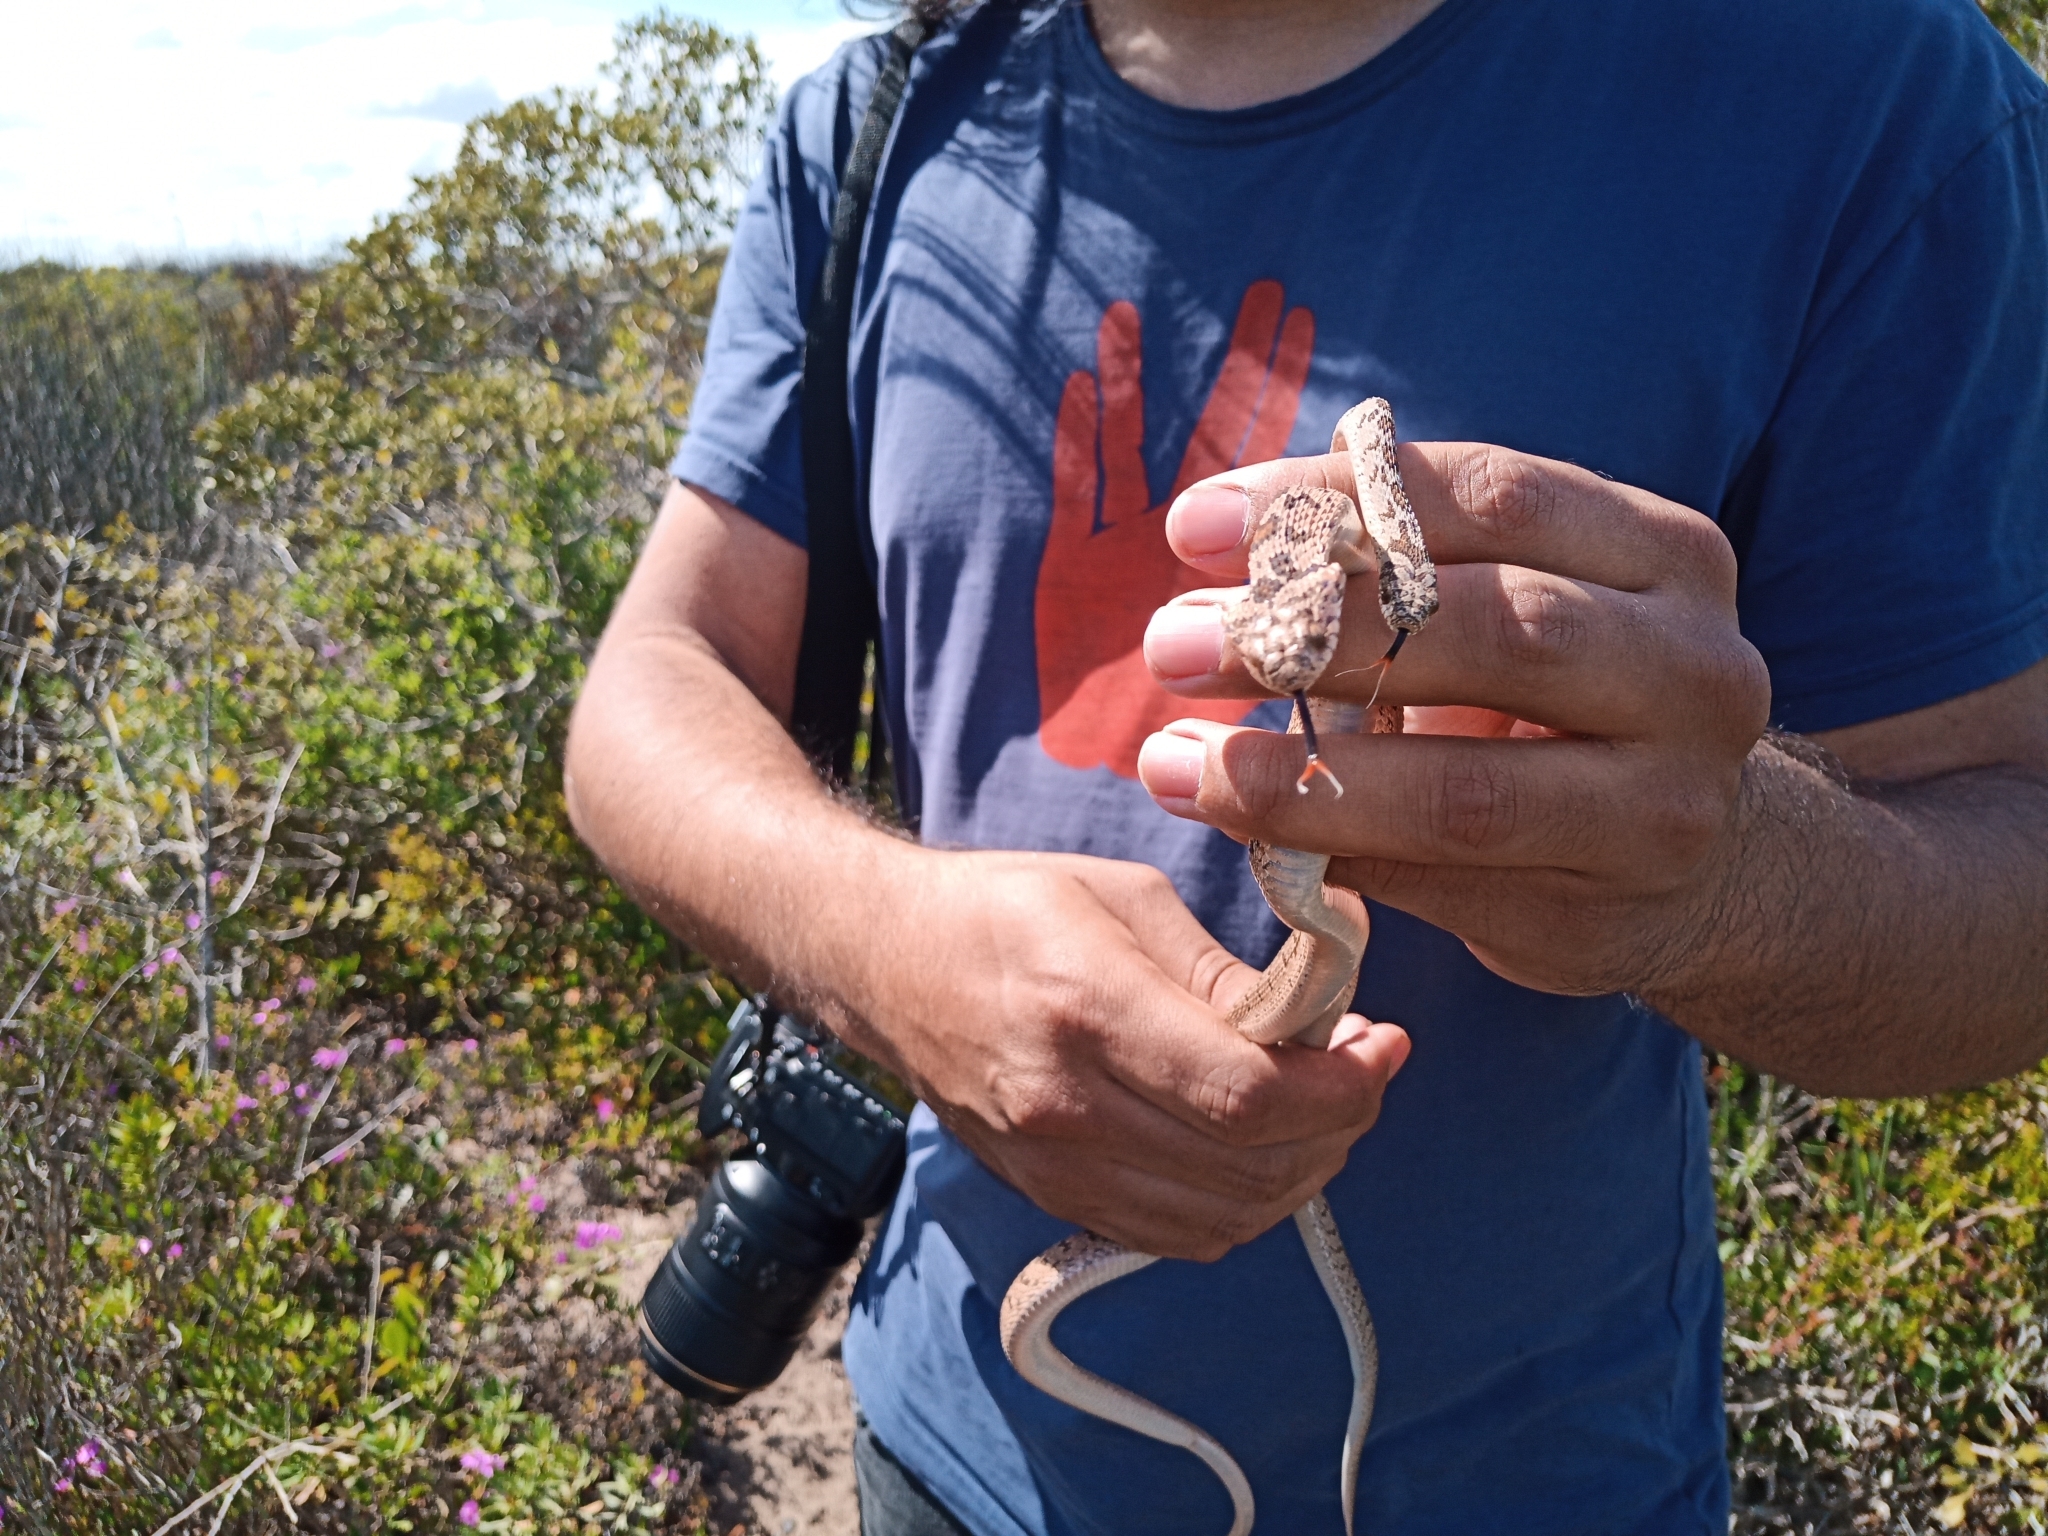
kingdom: Animalia
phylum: Chordata
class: Squamata
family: Colubridae
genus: Dasypeltis
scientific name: Dasypeltis scabra
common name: Common egg eater
